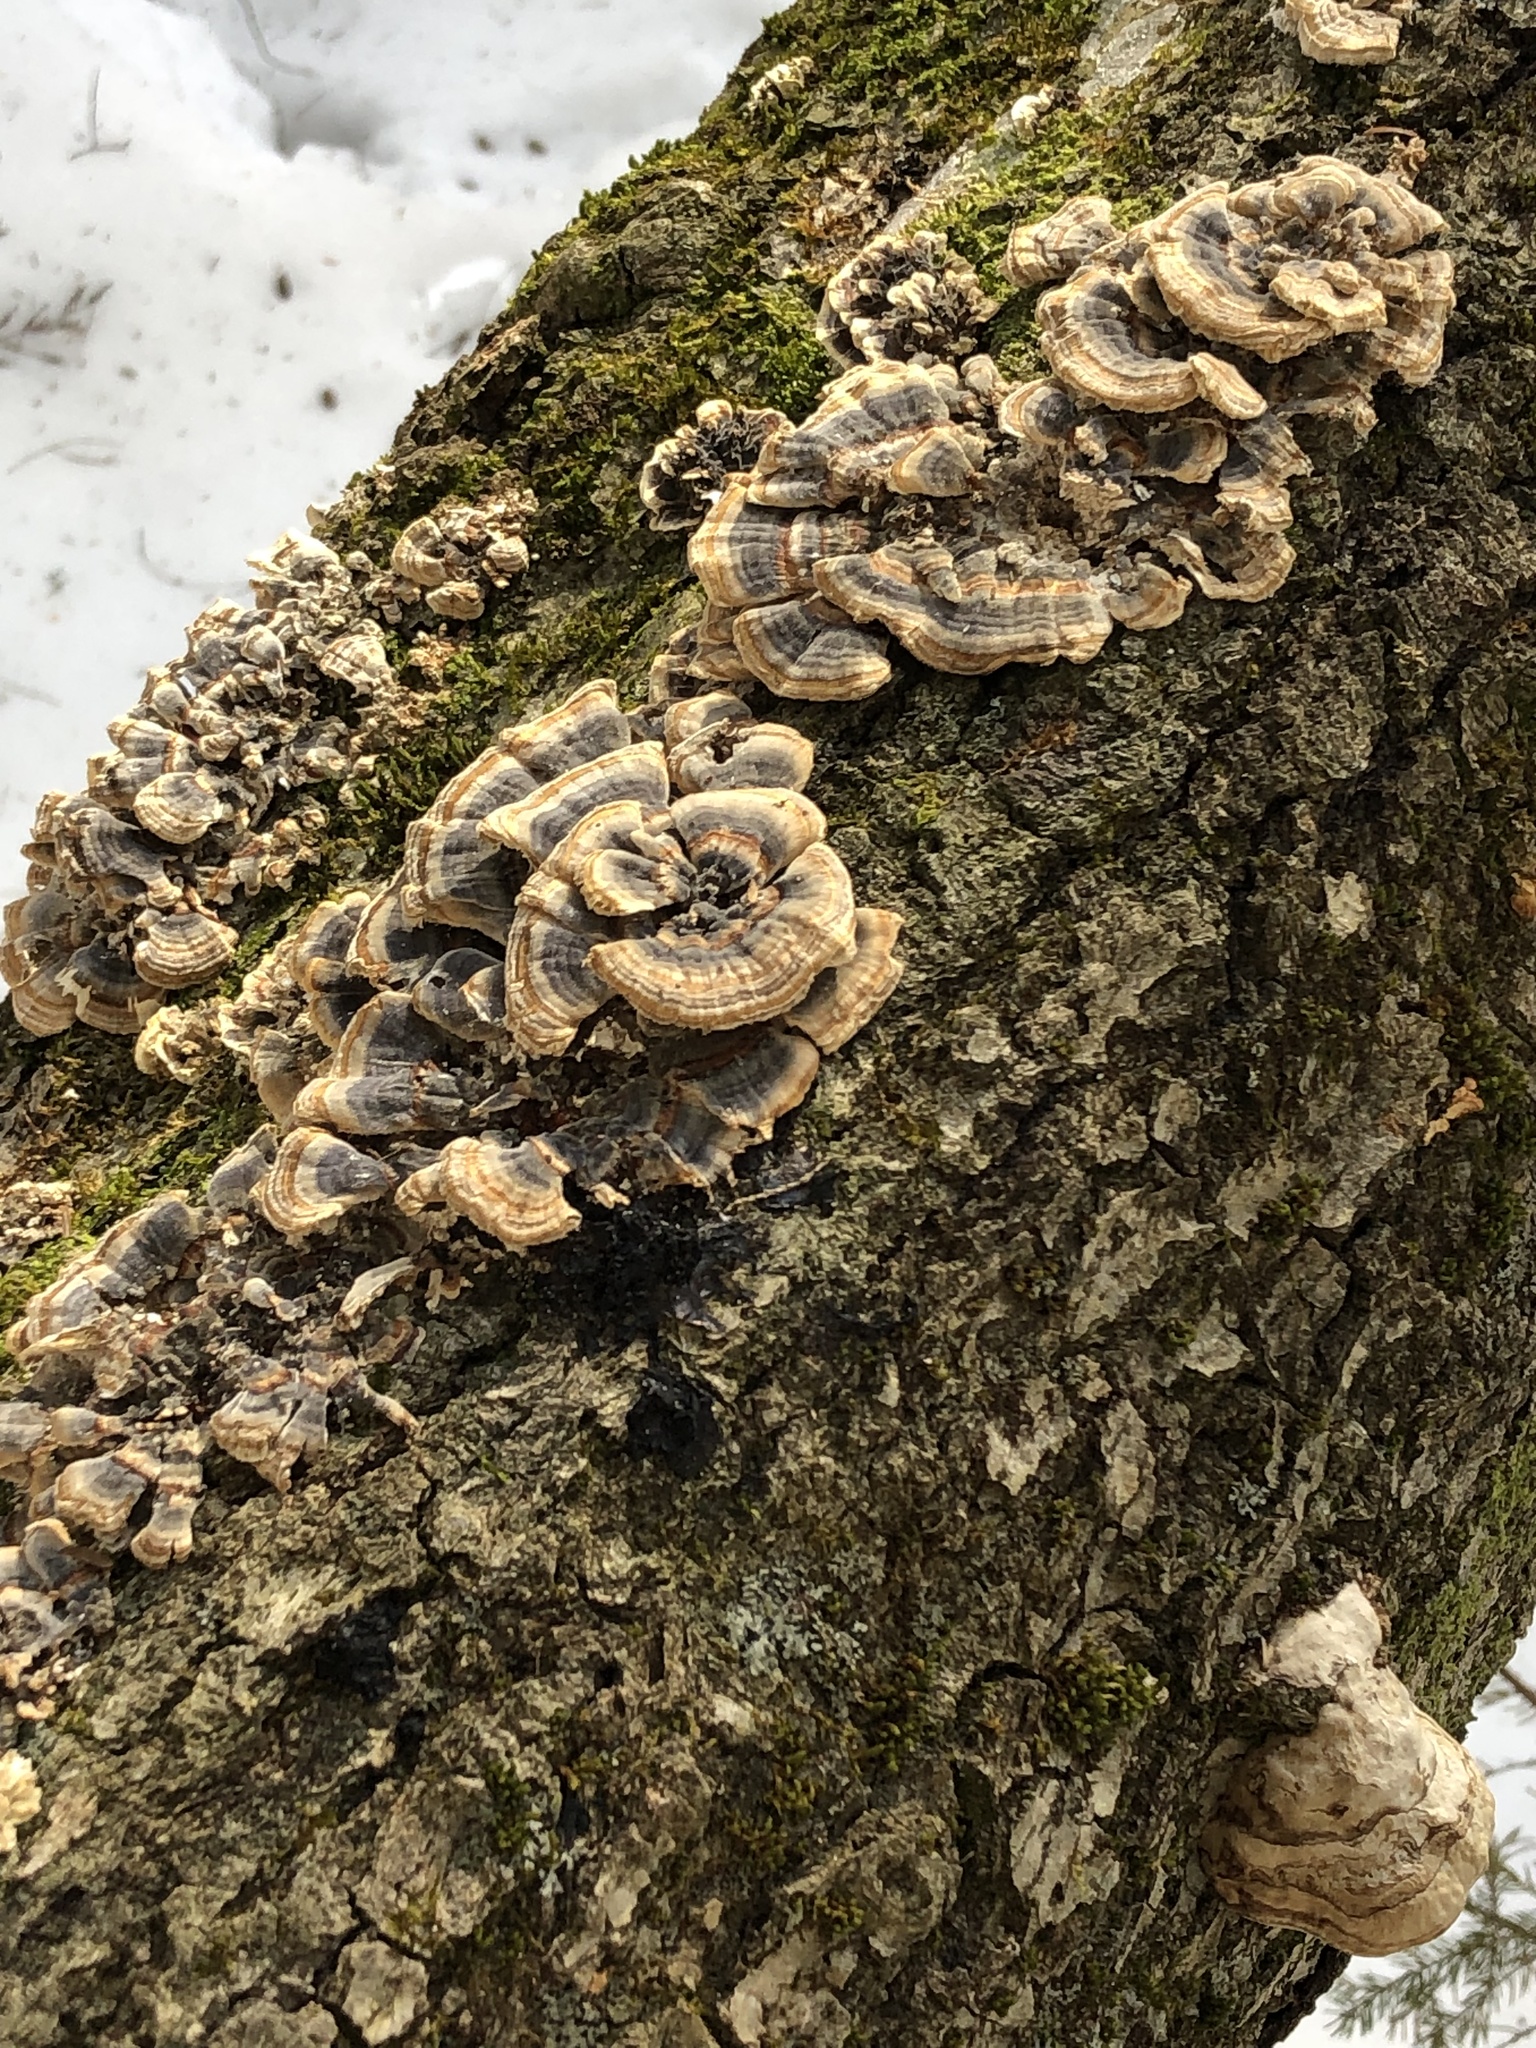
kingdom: Fungi
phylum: Basidiomycota
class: Agaricomycetes
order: Polyporales
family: Polyporaceae
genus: Trametes
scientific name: Trametes versicolor
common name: Turkeytail
